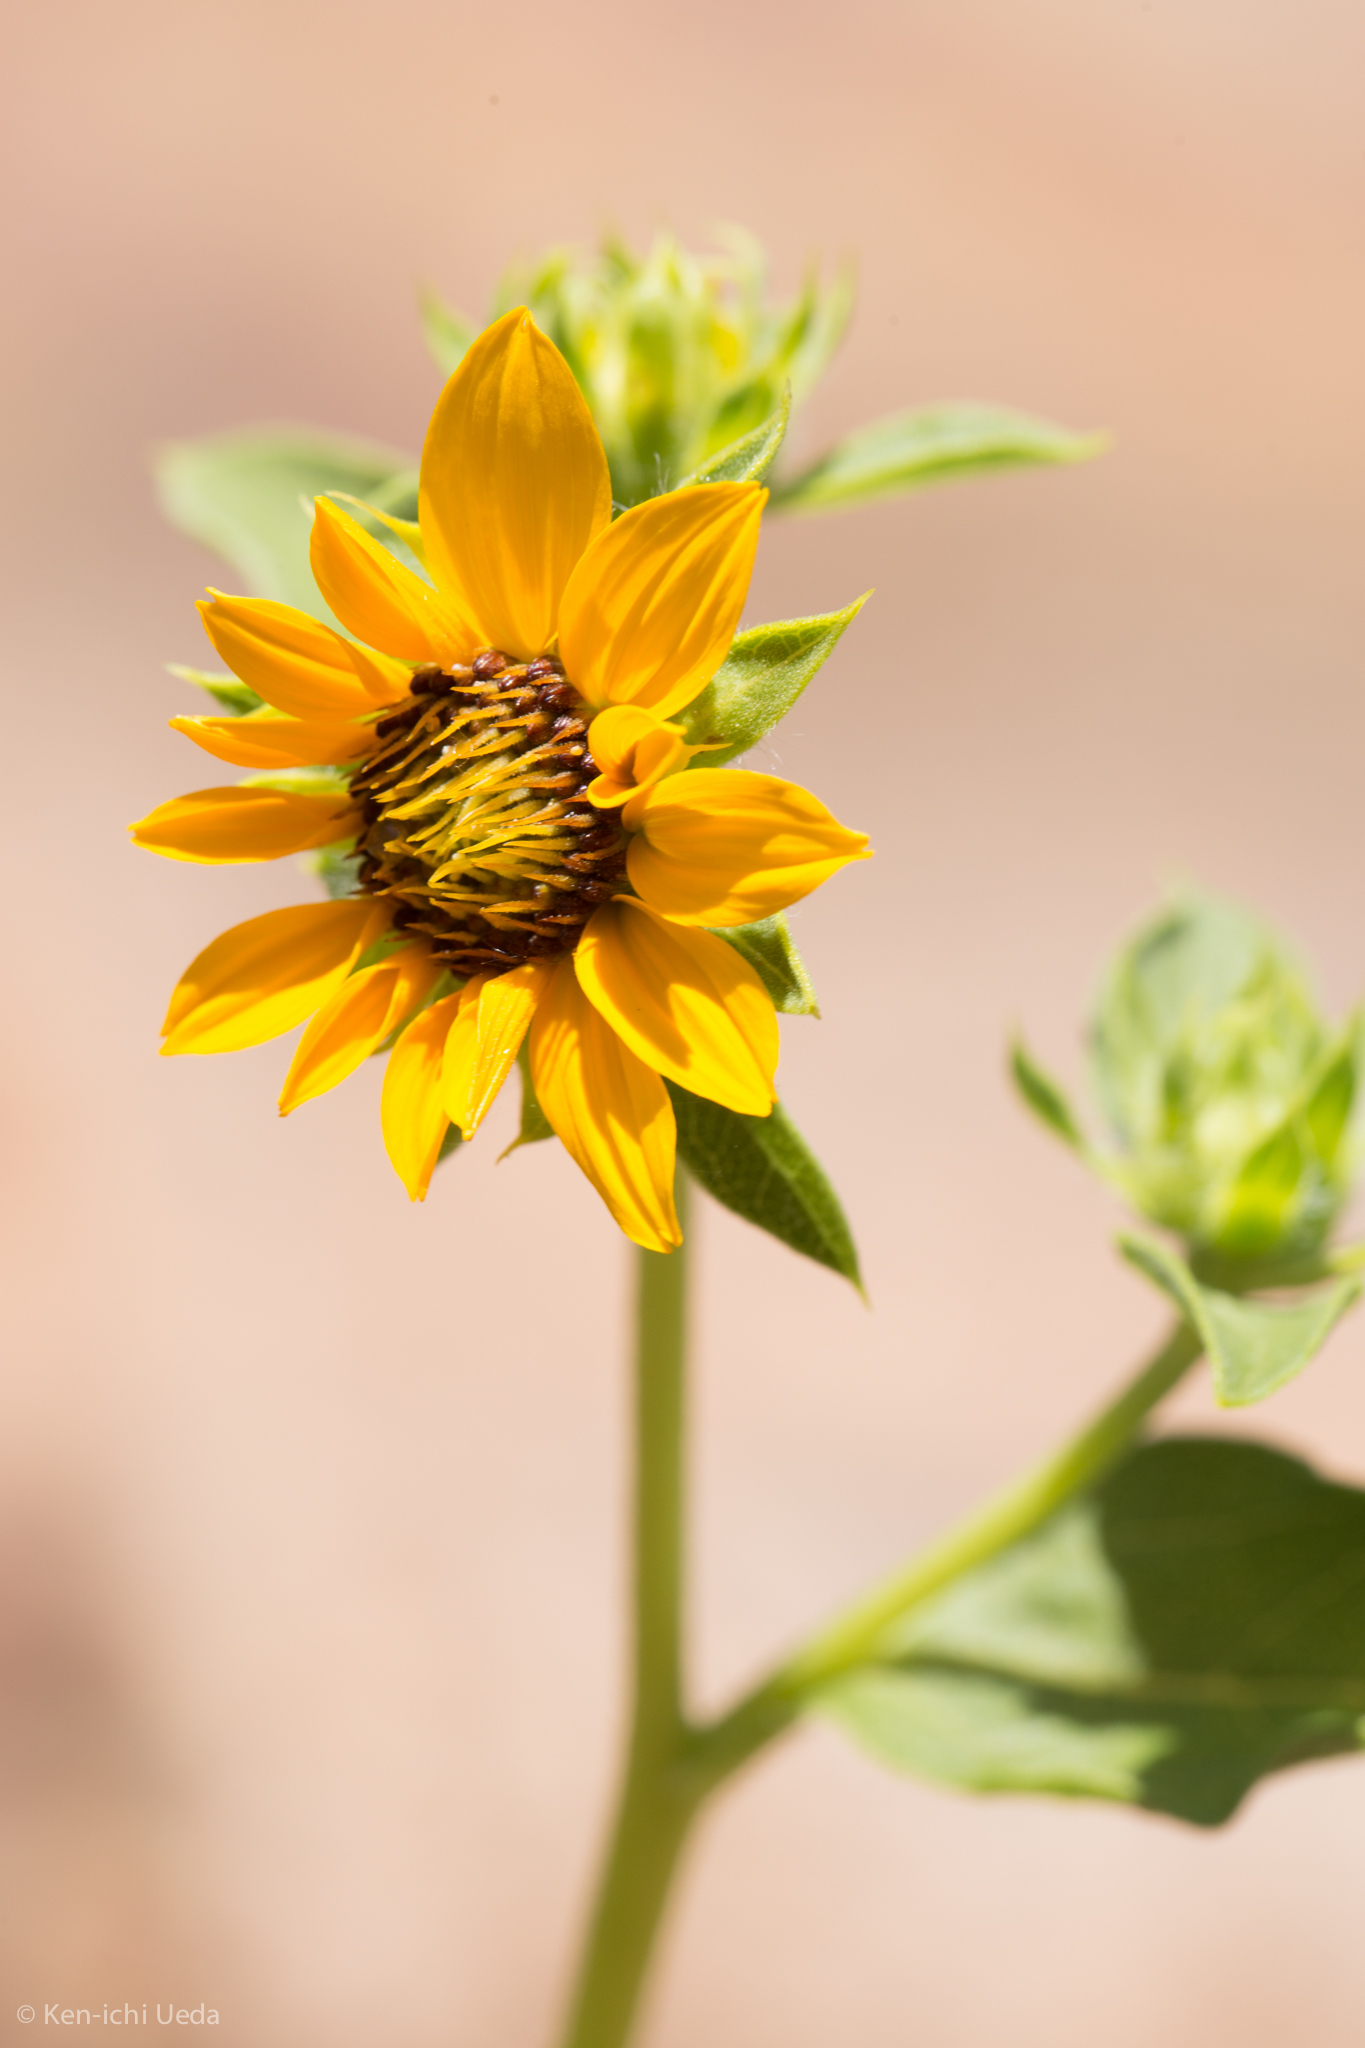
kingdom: Plantae
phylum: Tracheophyta
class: Magnoliopsida
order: Asterales
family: Asteraceae
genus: Helianthus
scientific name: Helianthus bolanderi
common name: Bolander's sunflower
